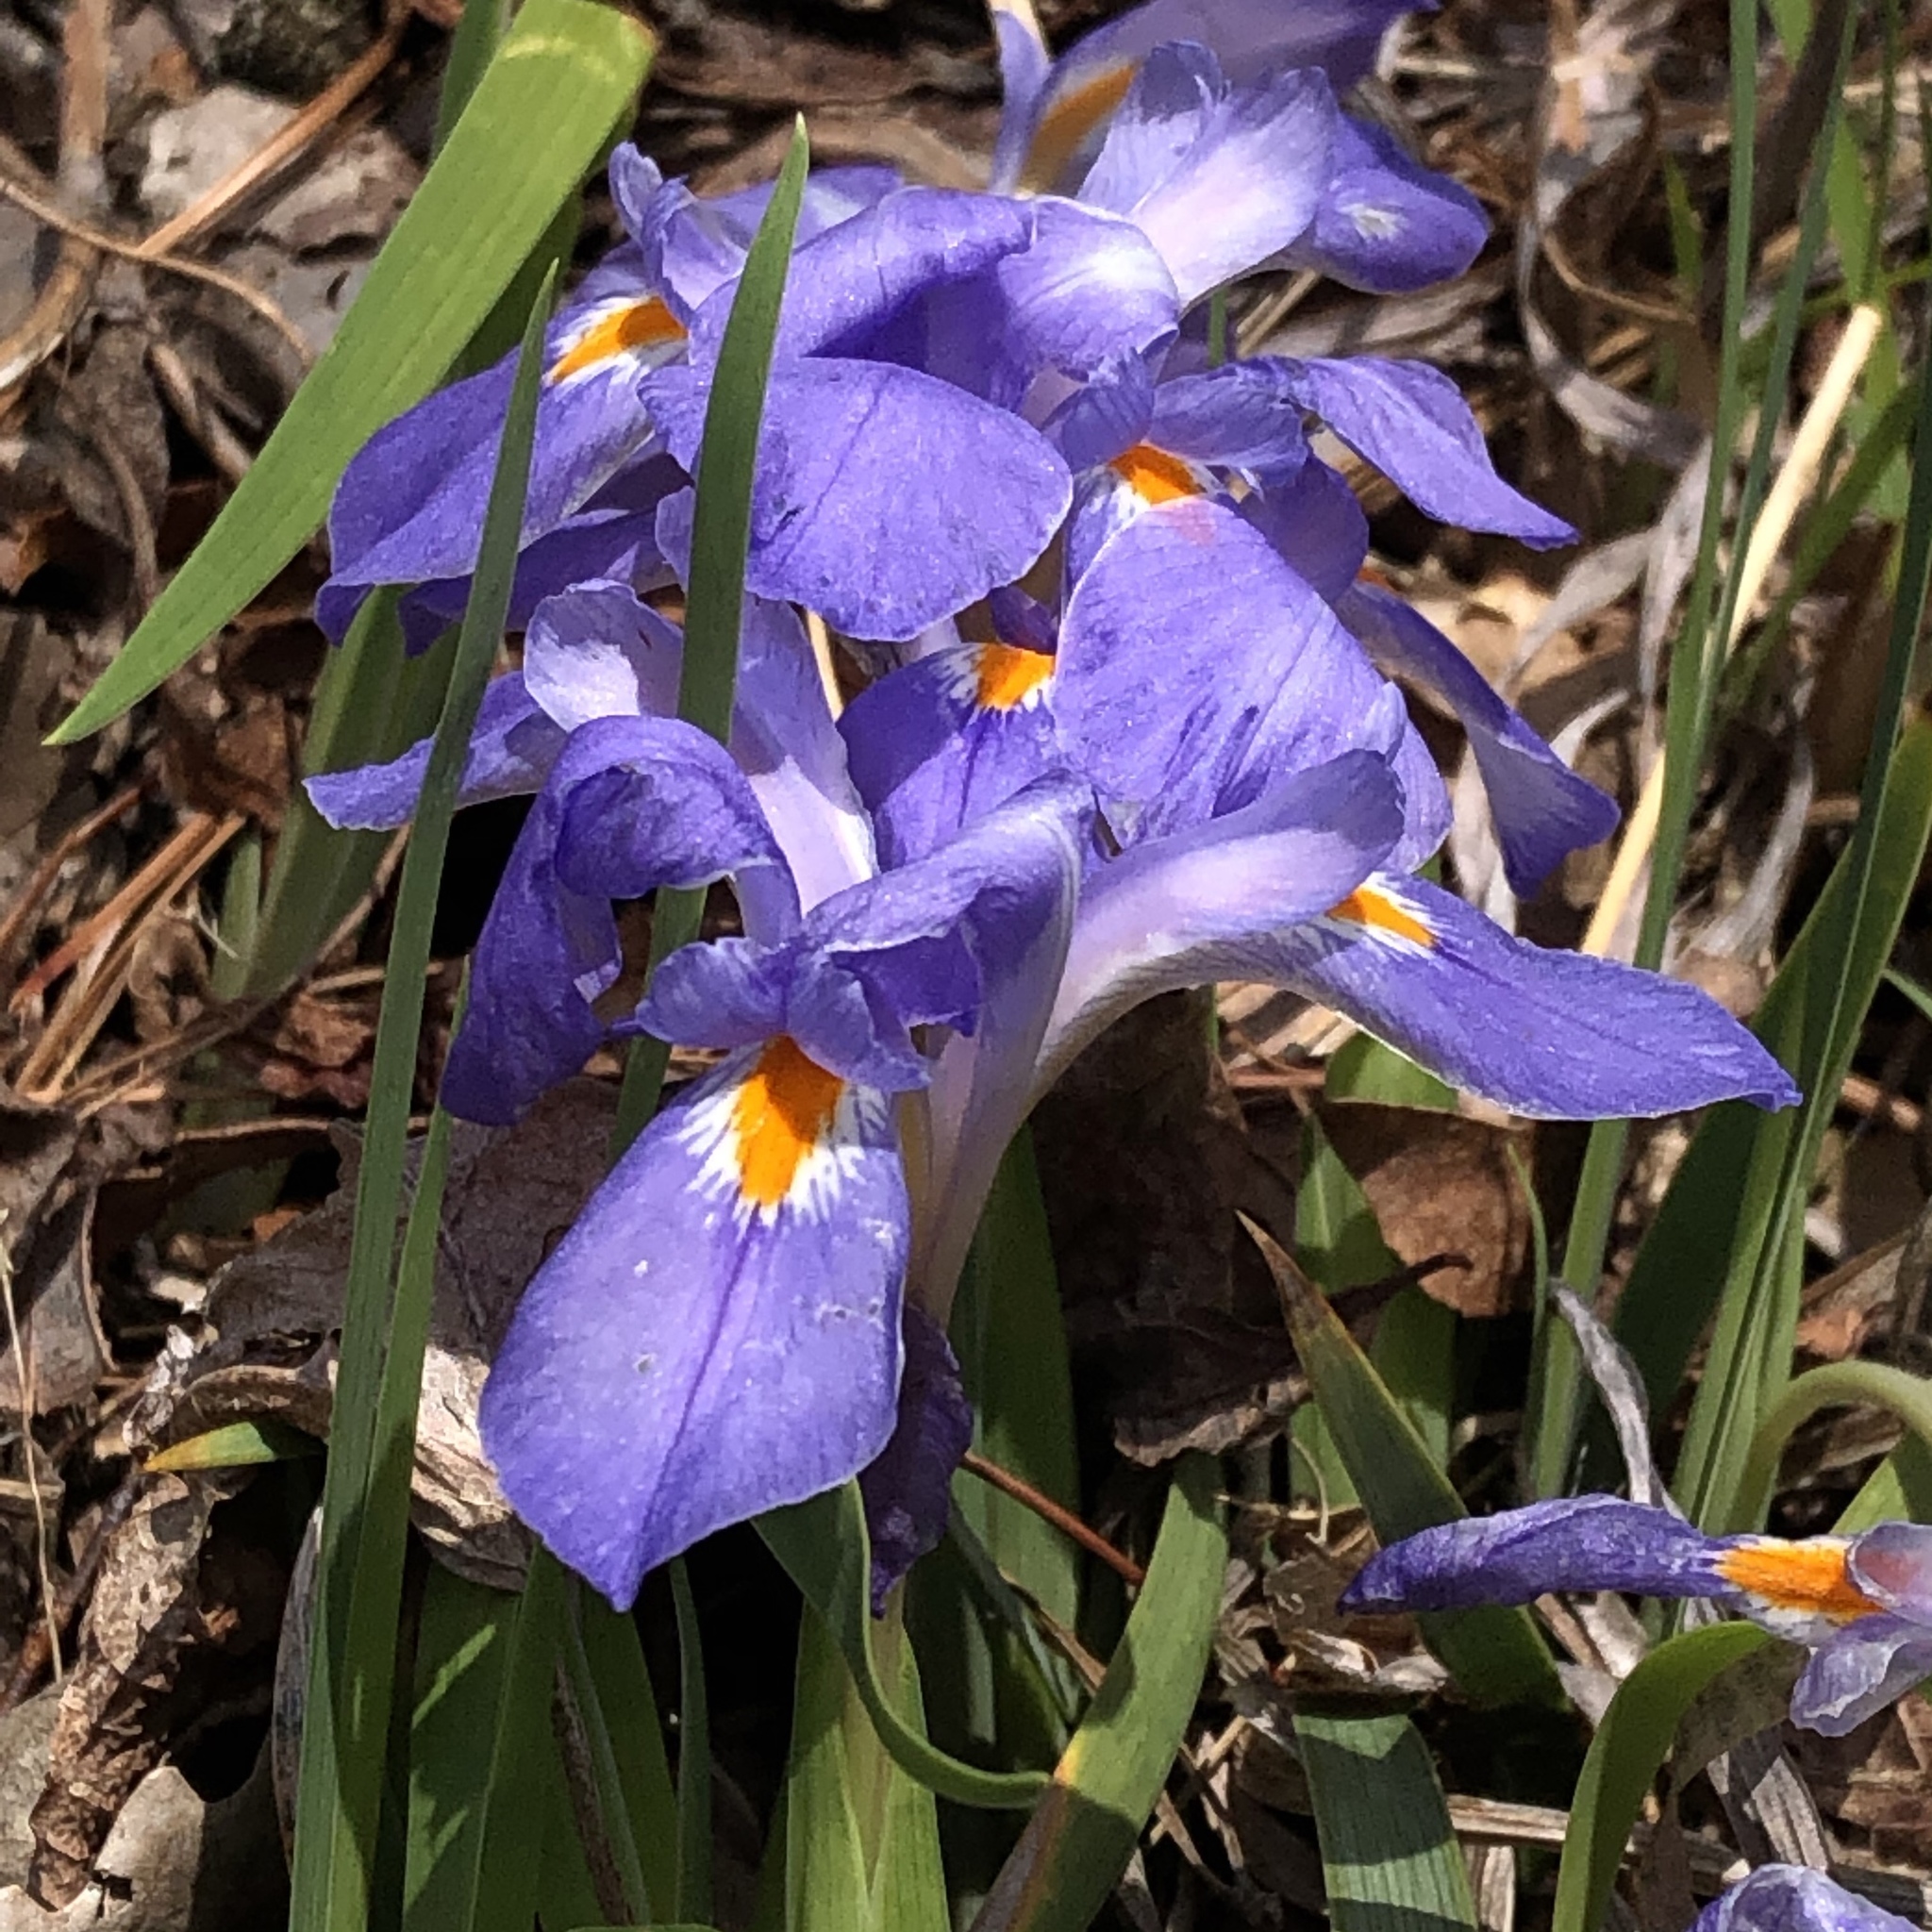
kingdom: Plantae
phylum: Tracheophyta
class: Liliopsida
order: Asparagales
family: Iridaceae
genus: Iris
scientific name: Iris verna
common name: Dwarf iris
